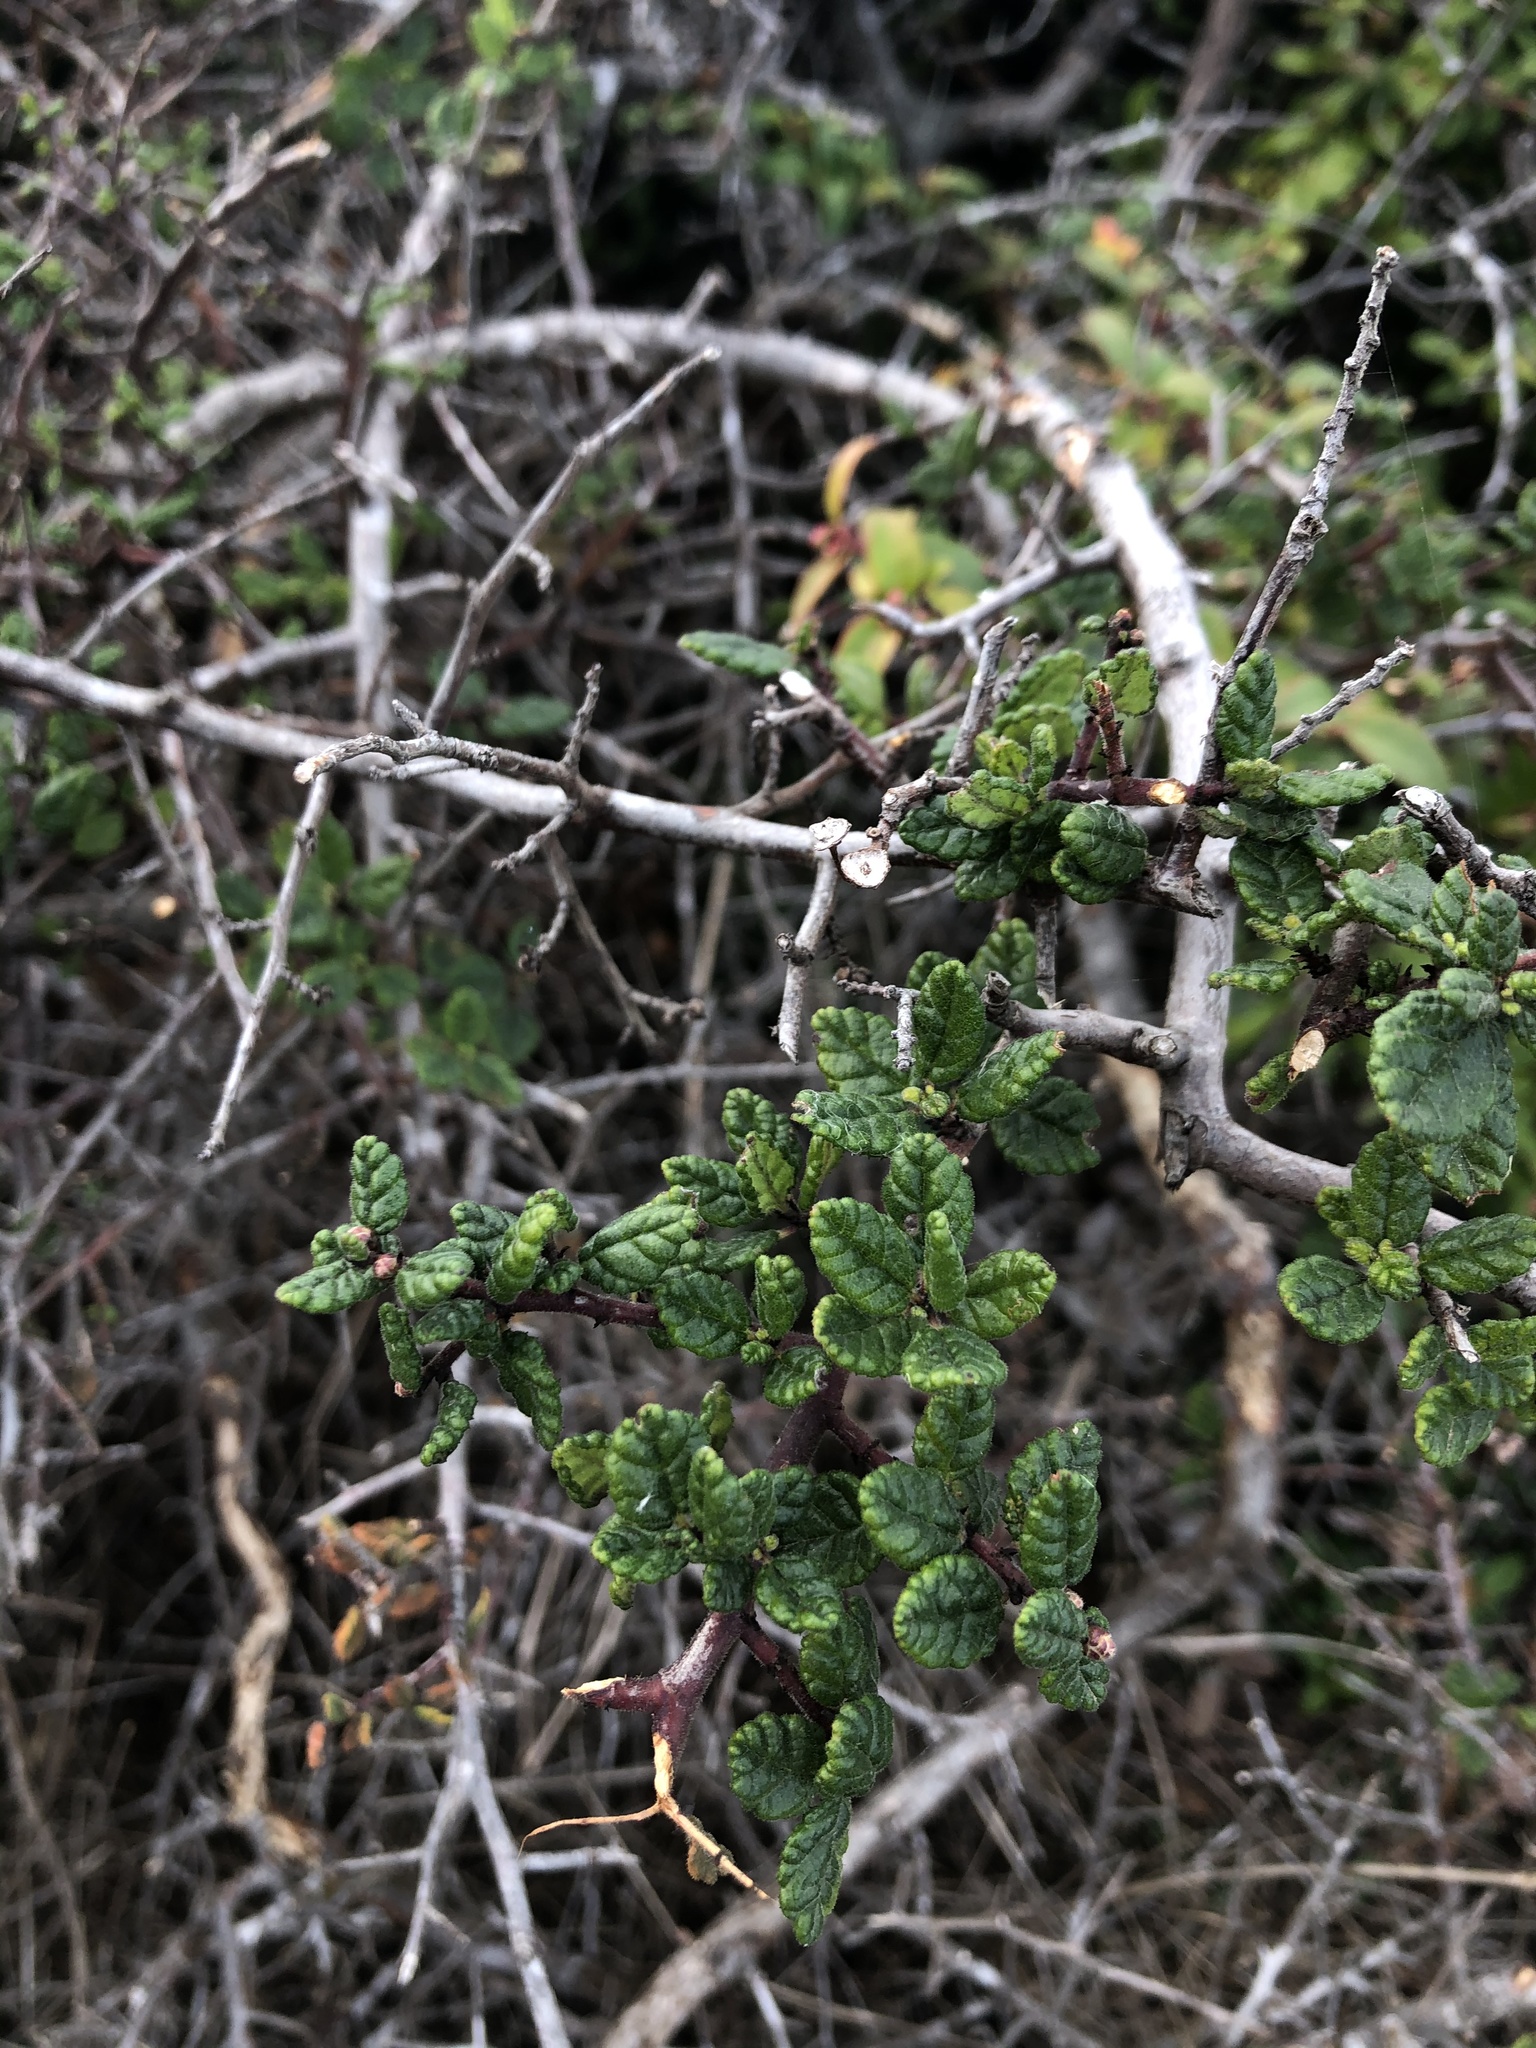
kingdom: Plantae
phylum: Tracheophyta
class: Magnoliopsida
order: Rosales
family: Rhamnaceae
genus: Ceanothus
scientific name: Ceanothus impressus
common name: Santa barbara ceanothus
